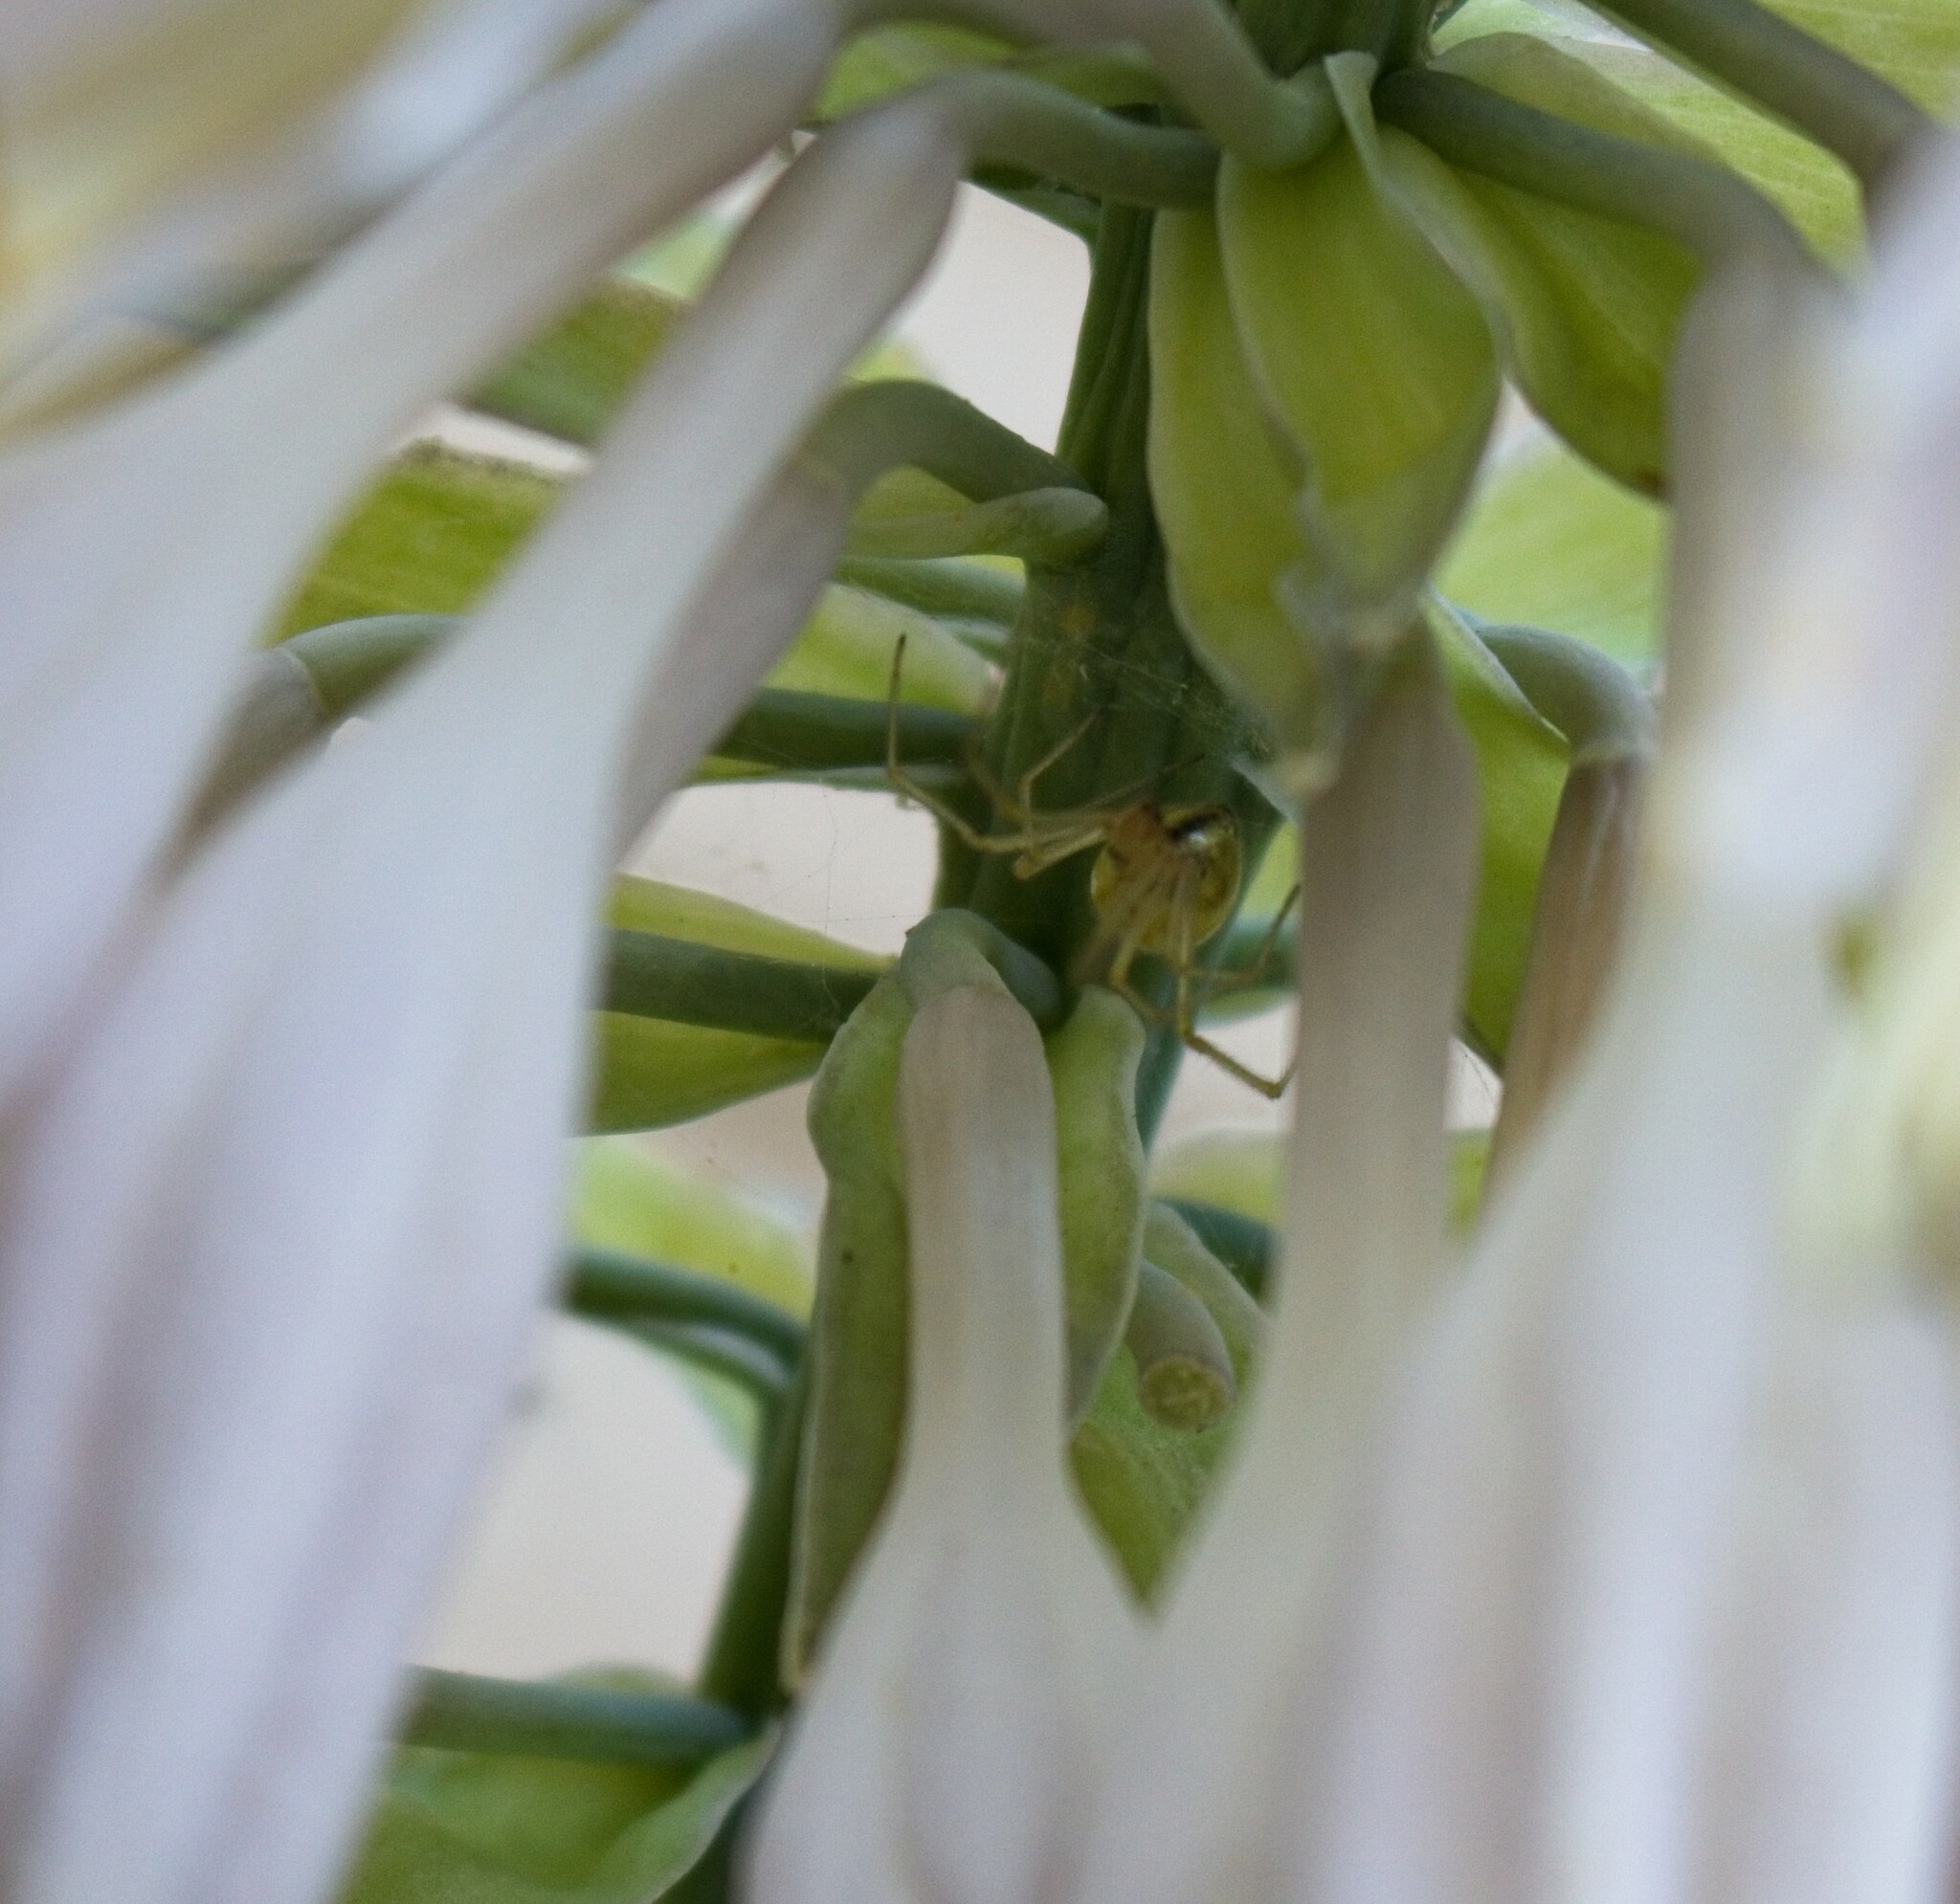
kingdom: Animalia
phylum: Arthropoda
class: Arachnida
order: Araneae
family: Theridiidae
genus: Enoplognatha
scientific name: Enoplognatha ovata
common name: Common candy-striped spider
